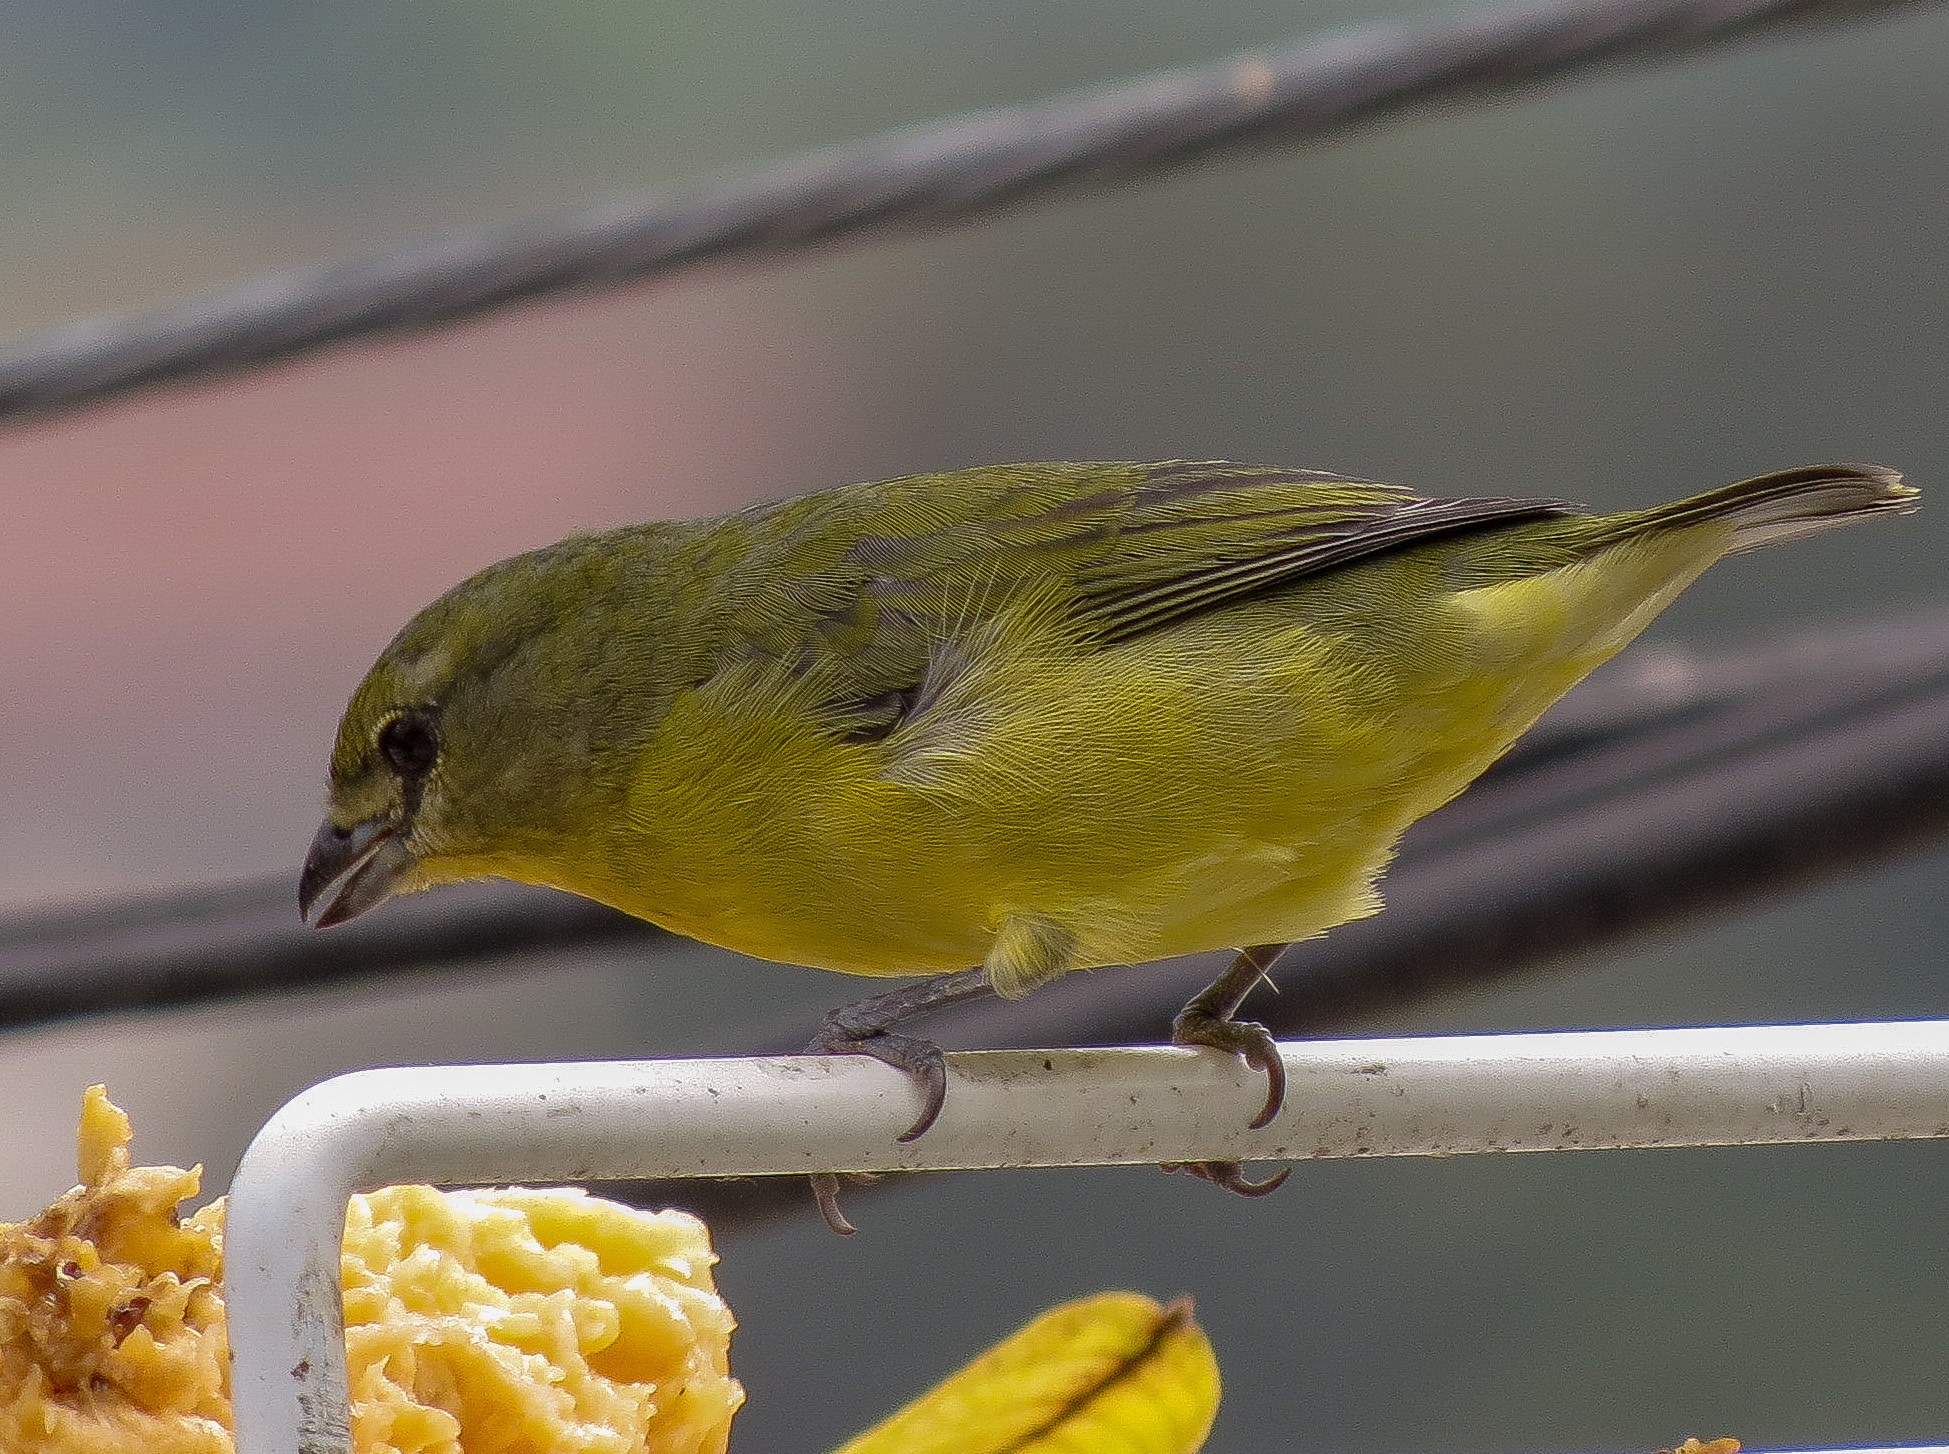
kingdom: Animalia
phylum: Chordata
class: Aves
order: Passeriformes
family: Fringillidae
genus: Euphonia
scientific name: Euphonia laniirostris
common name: Thick-billed euphonia
